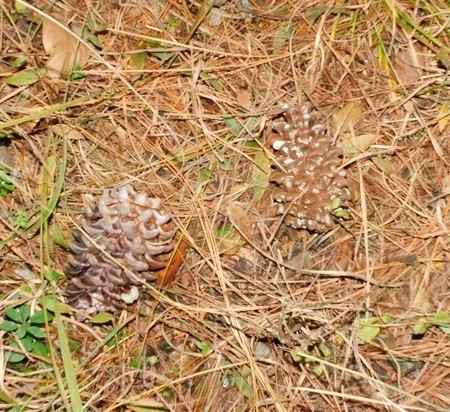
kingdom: Plantae
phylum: Tracheophyta
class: Pinopsida
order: Pinales
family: Pinaceae
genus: Pinus
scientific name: Pinus roxburghii
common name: Chir pine
